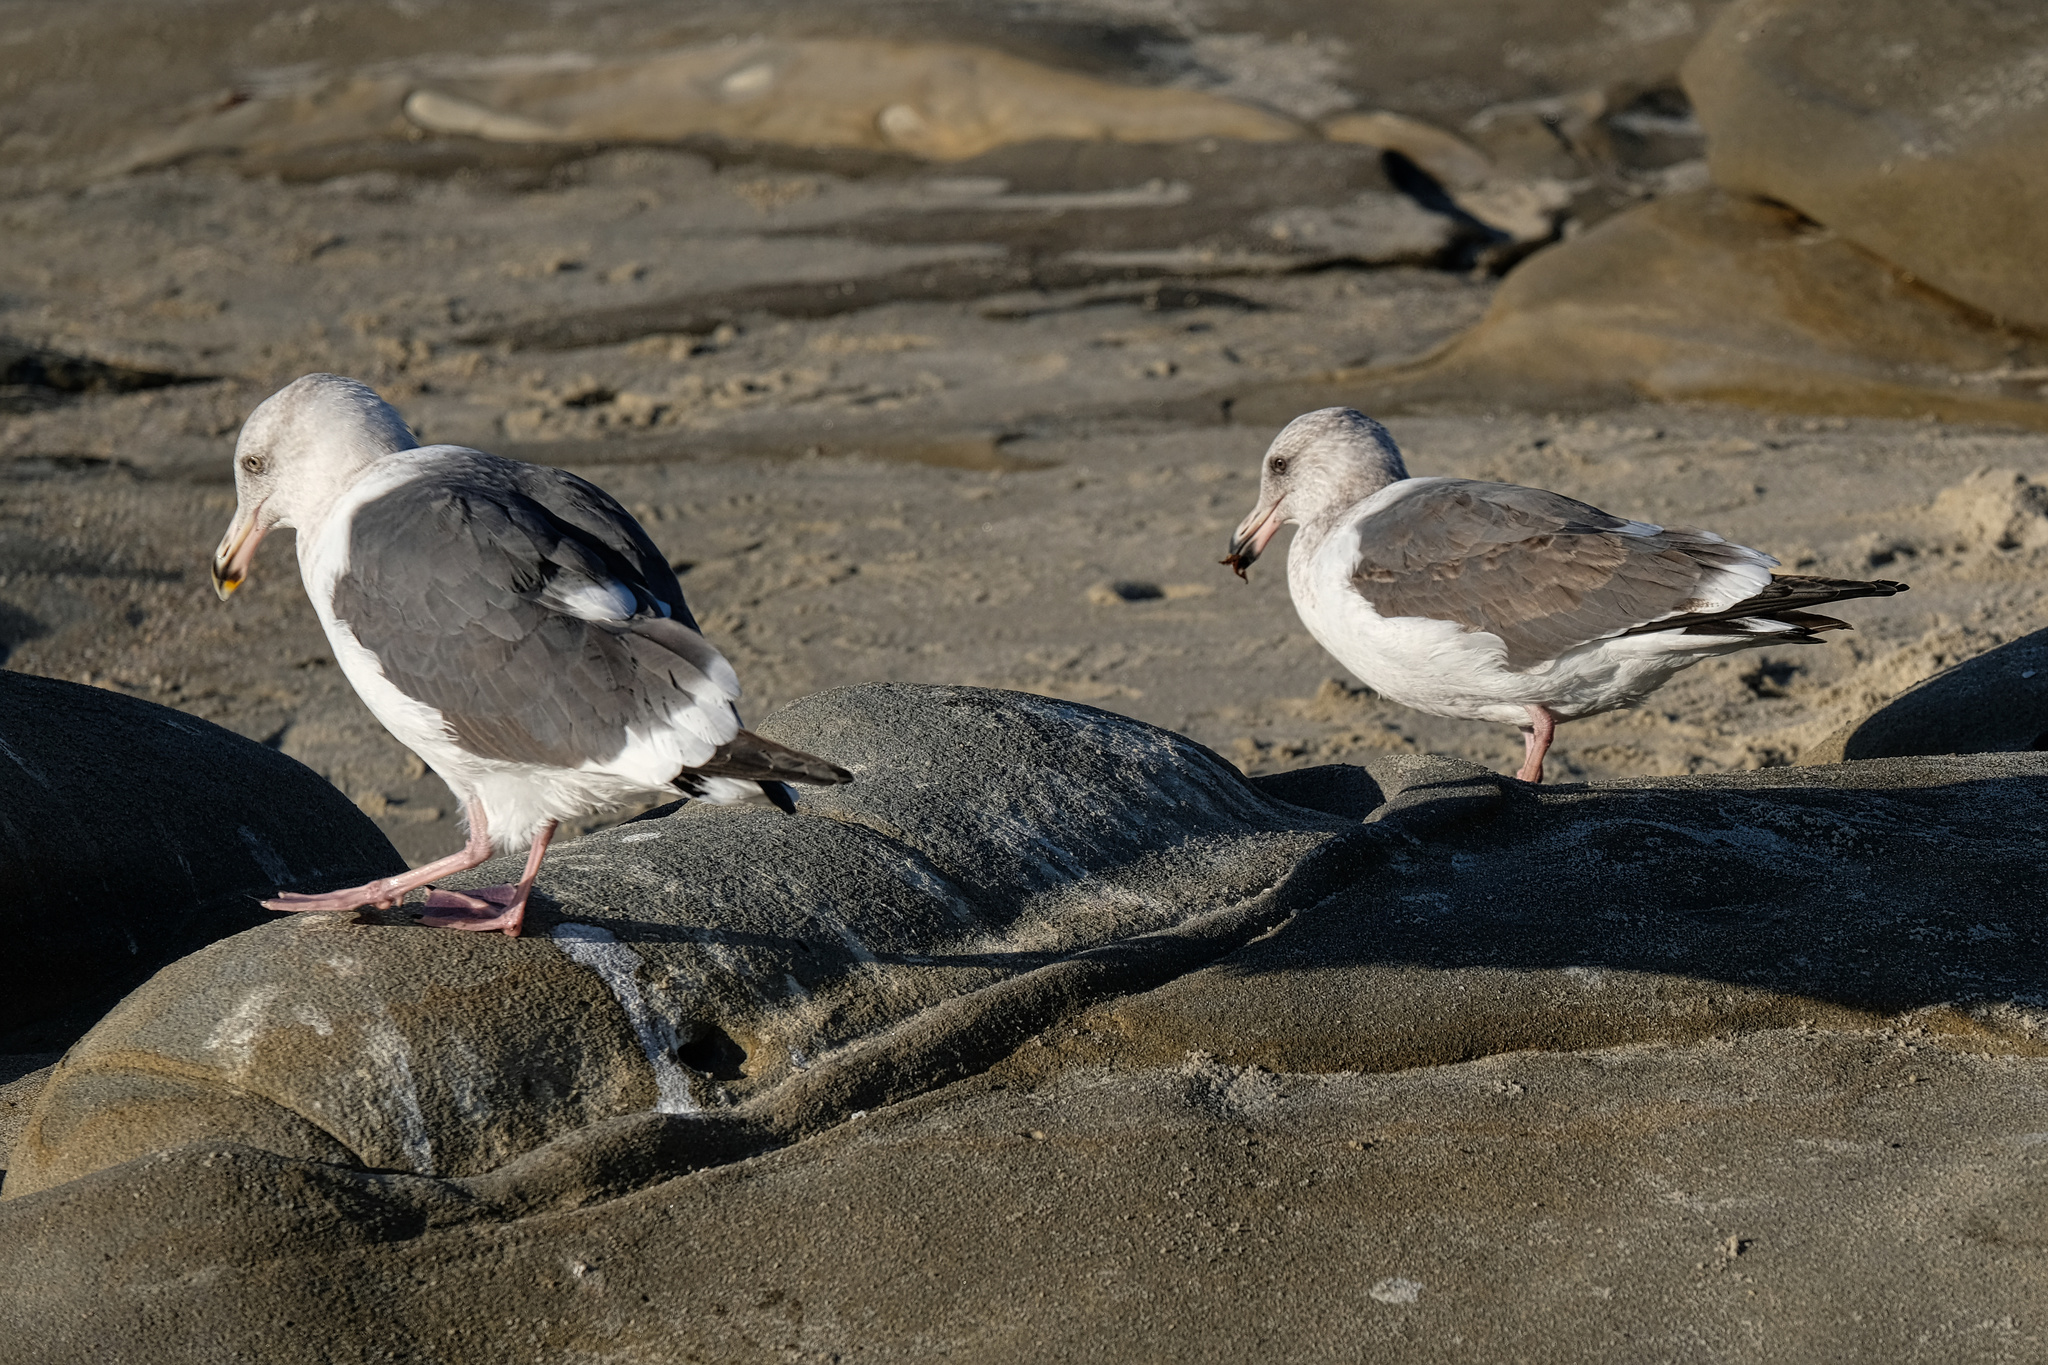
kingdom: Animalia
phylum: Chordata
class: Aves
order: Charadriiformes
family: Laridae
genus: Larus
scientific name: Larus occidentalis
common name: Western gull
